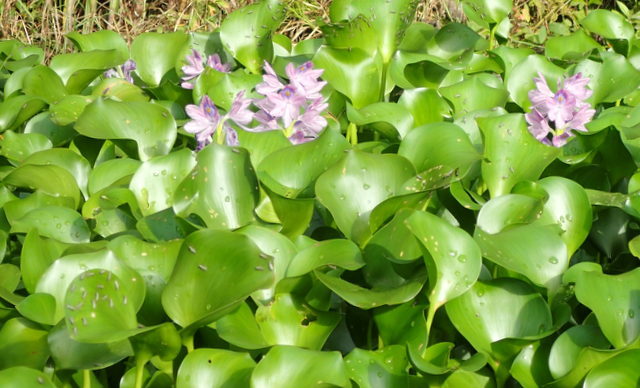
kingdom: Plantae
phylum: Tracheophyta
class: Liliopsida
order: Commelinales
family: Pontederiaceae
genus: Pontederia
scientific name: Pontederia crassipes
